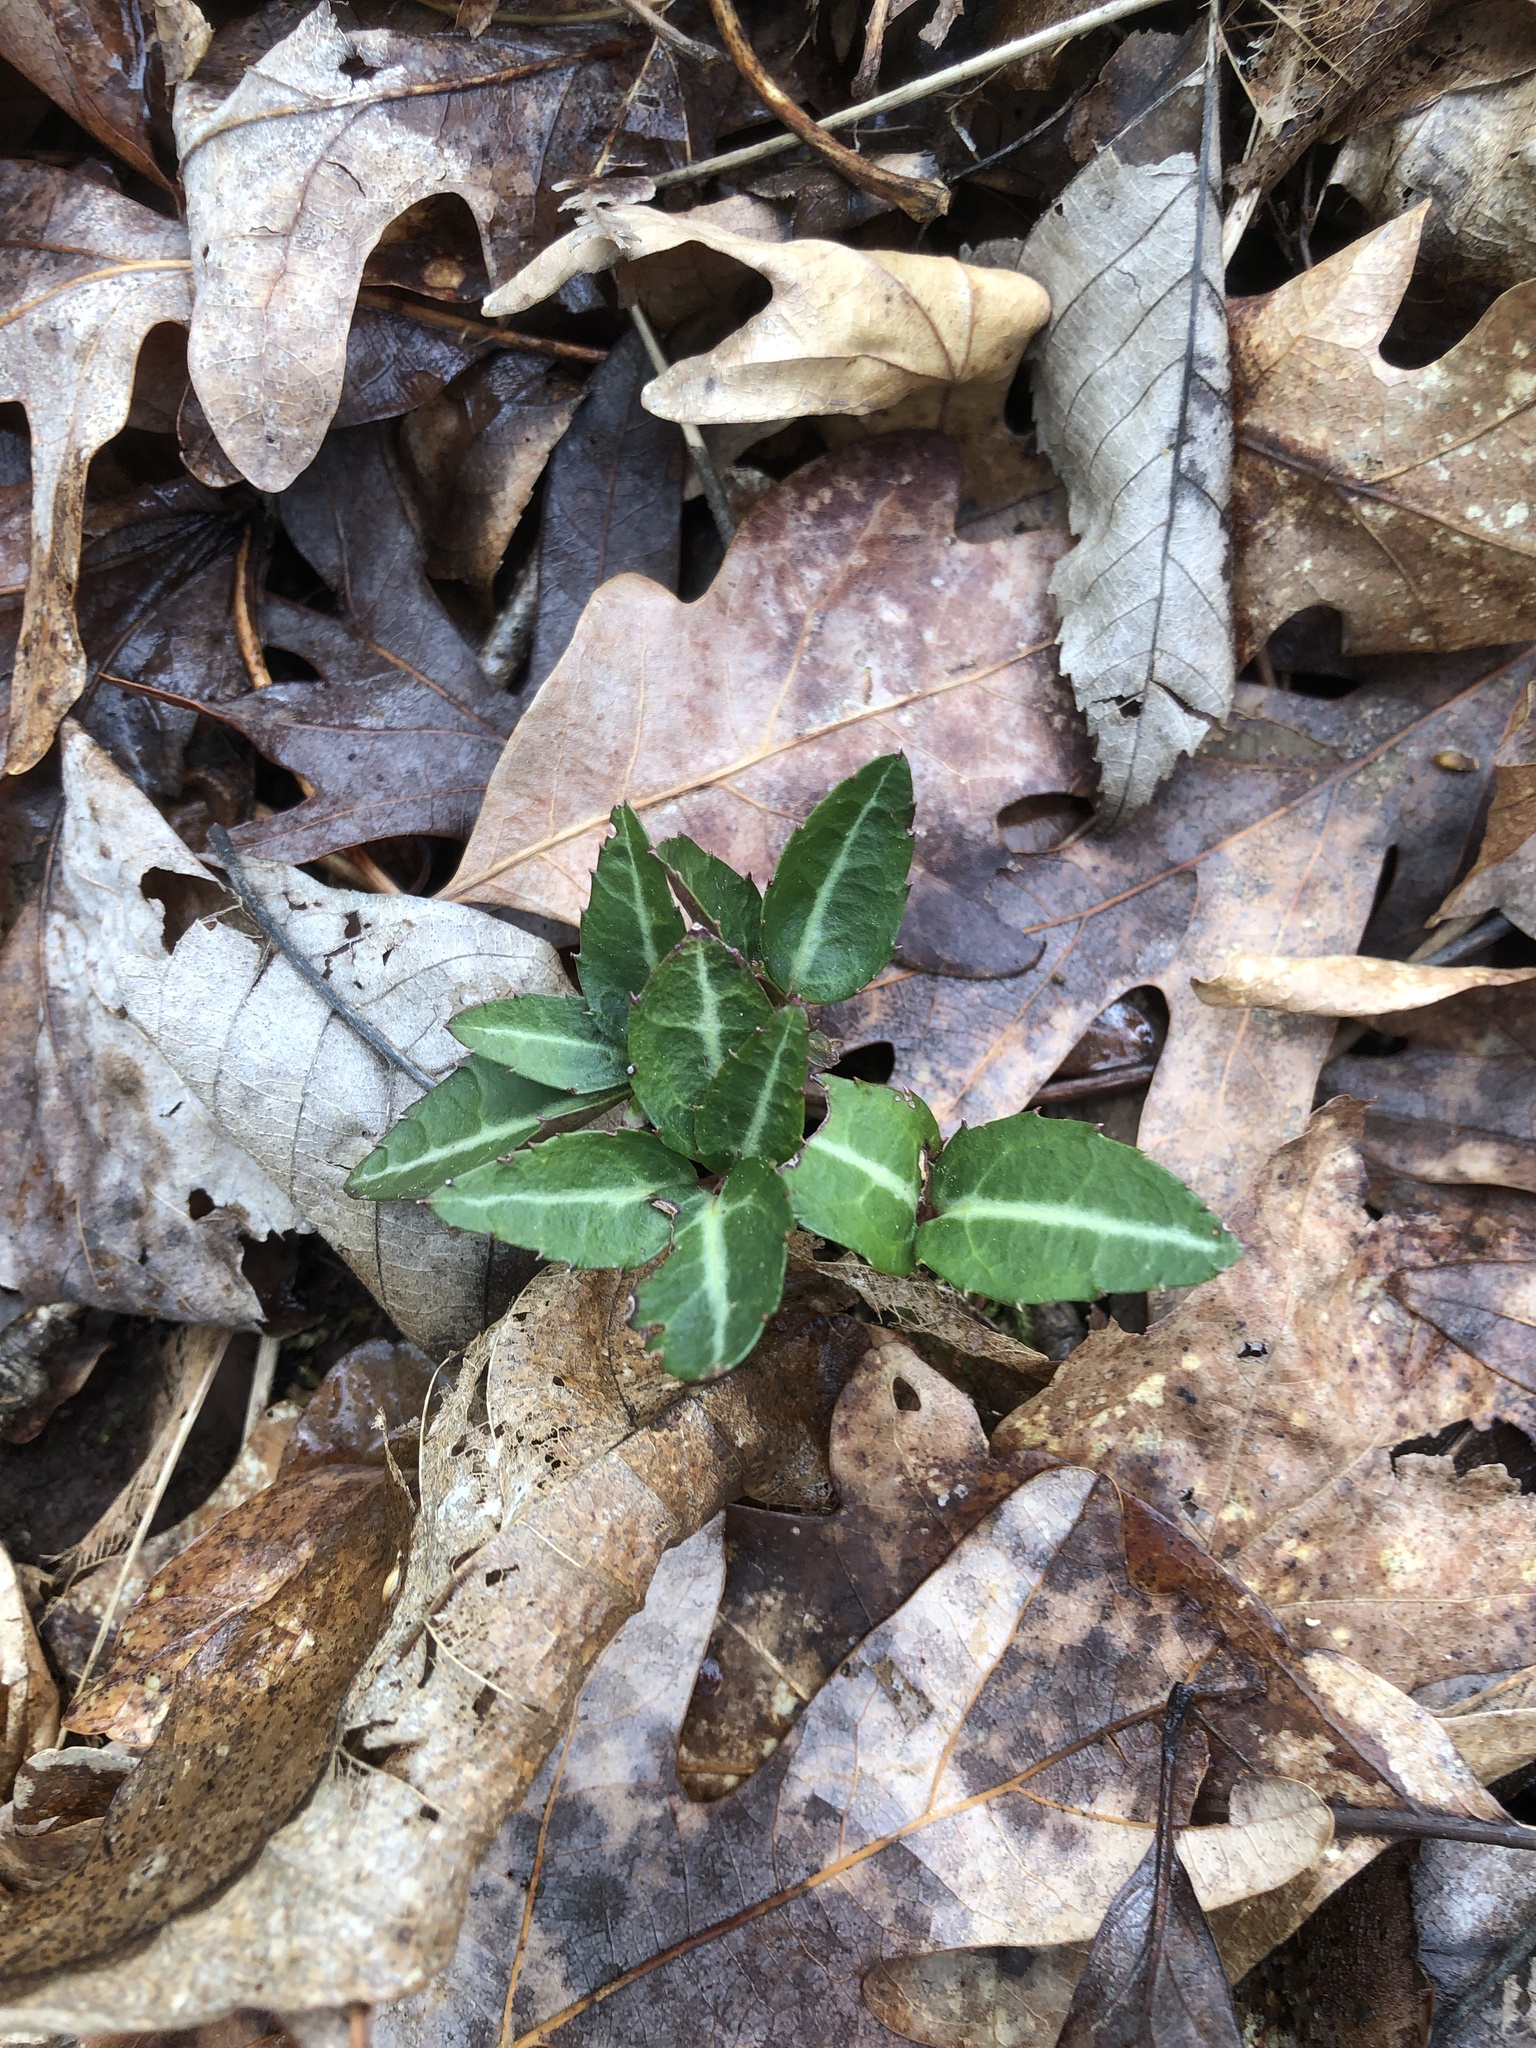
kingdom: Plantae
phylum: Tracheophyta
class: Magnoliopsida
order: Ericales
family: Ericaceae
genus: Chimaphila
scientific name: Chimaphila maculata
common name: Spotted pipsissewa
